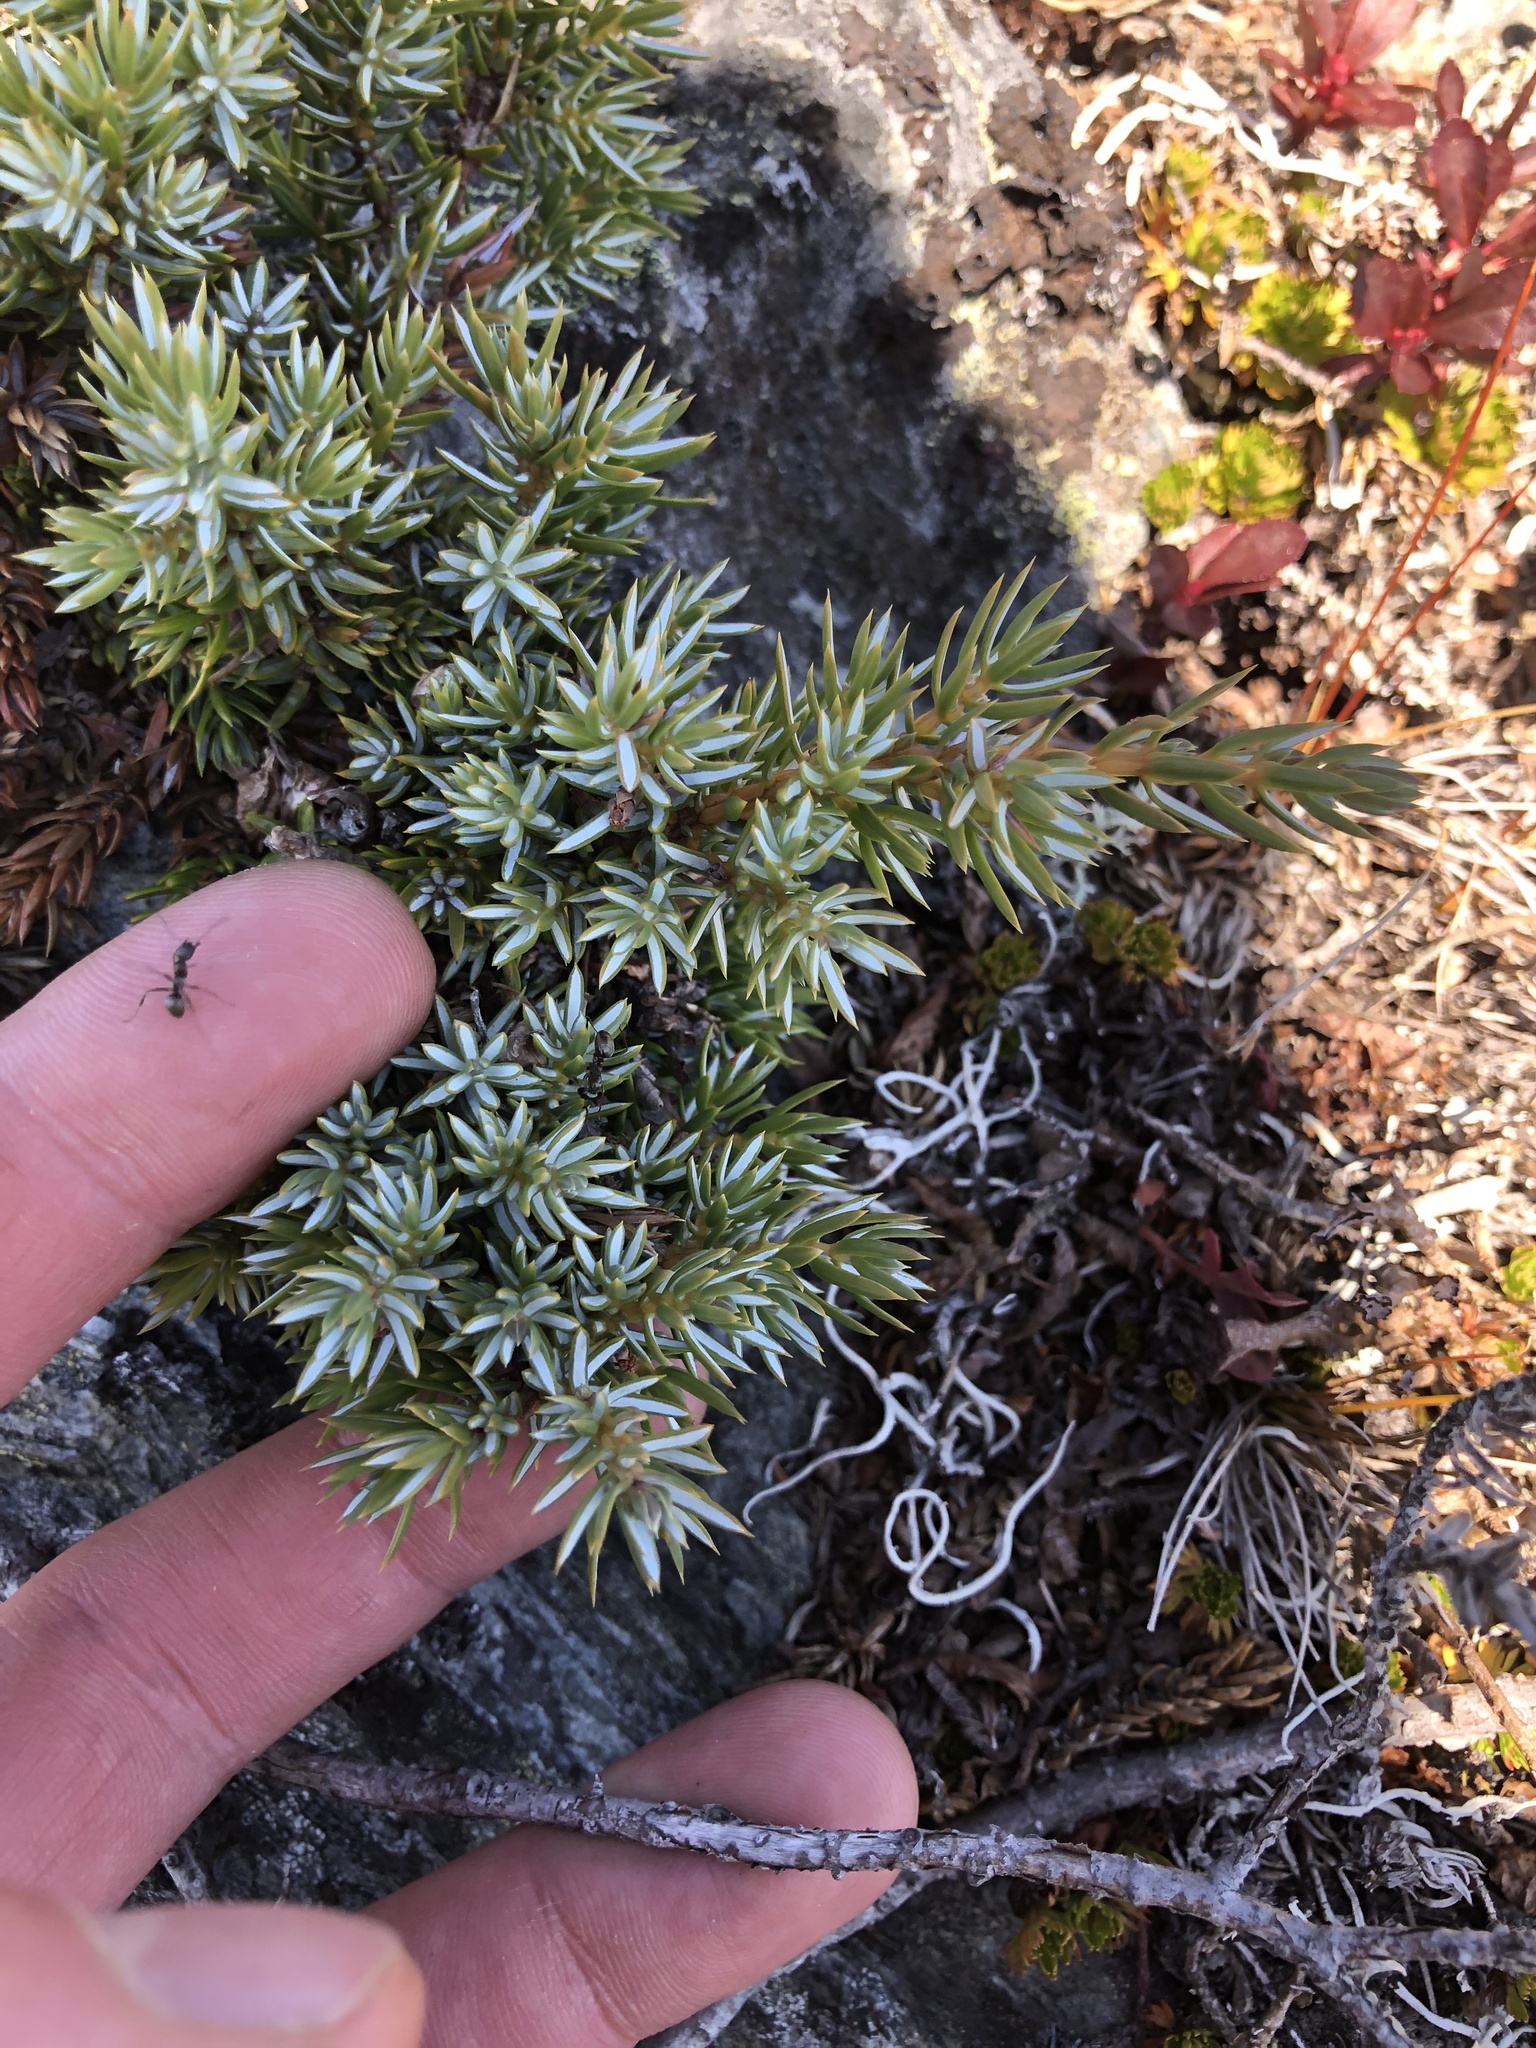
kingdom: Plantae
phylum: Tracheophyta
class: Pinopsida
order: Pinales
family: Cupressaceae
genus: Juniperus
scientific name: Juniperus communis
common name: Common juniper
